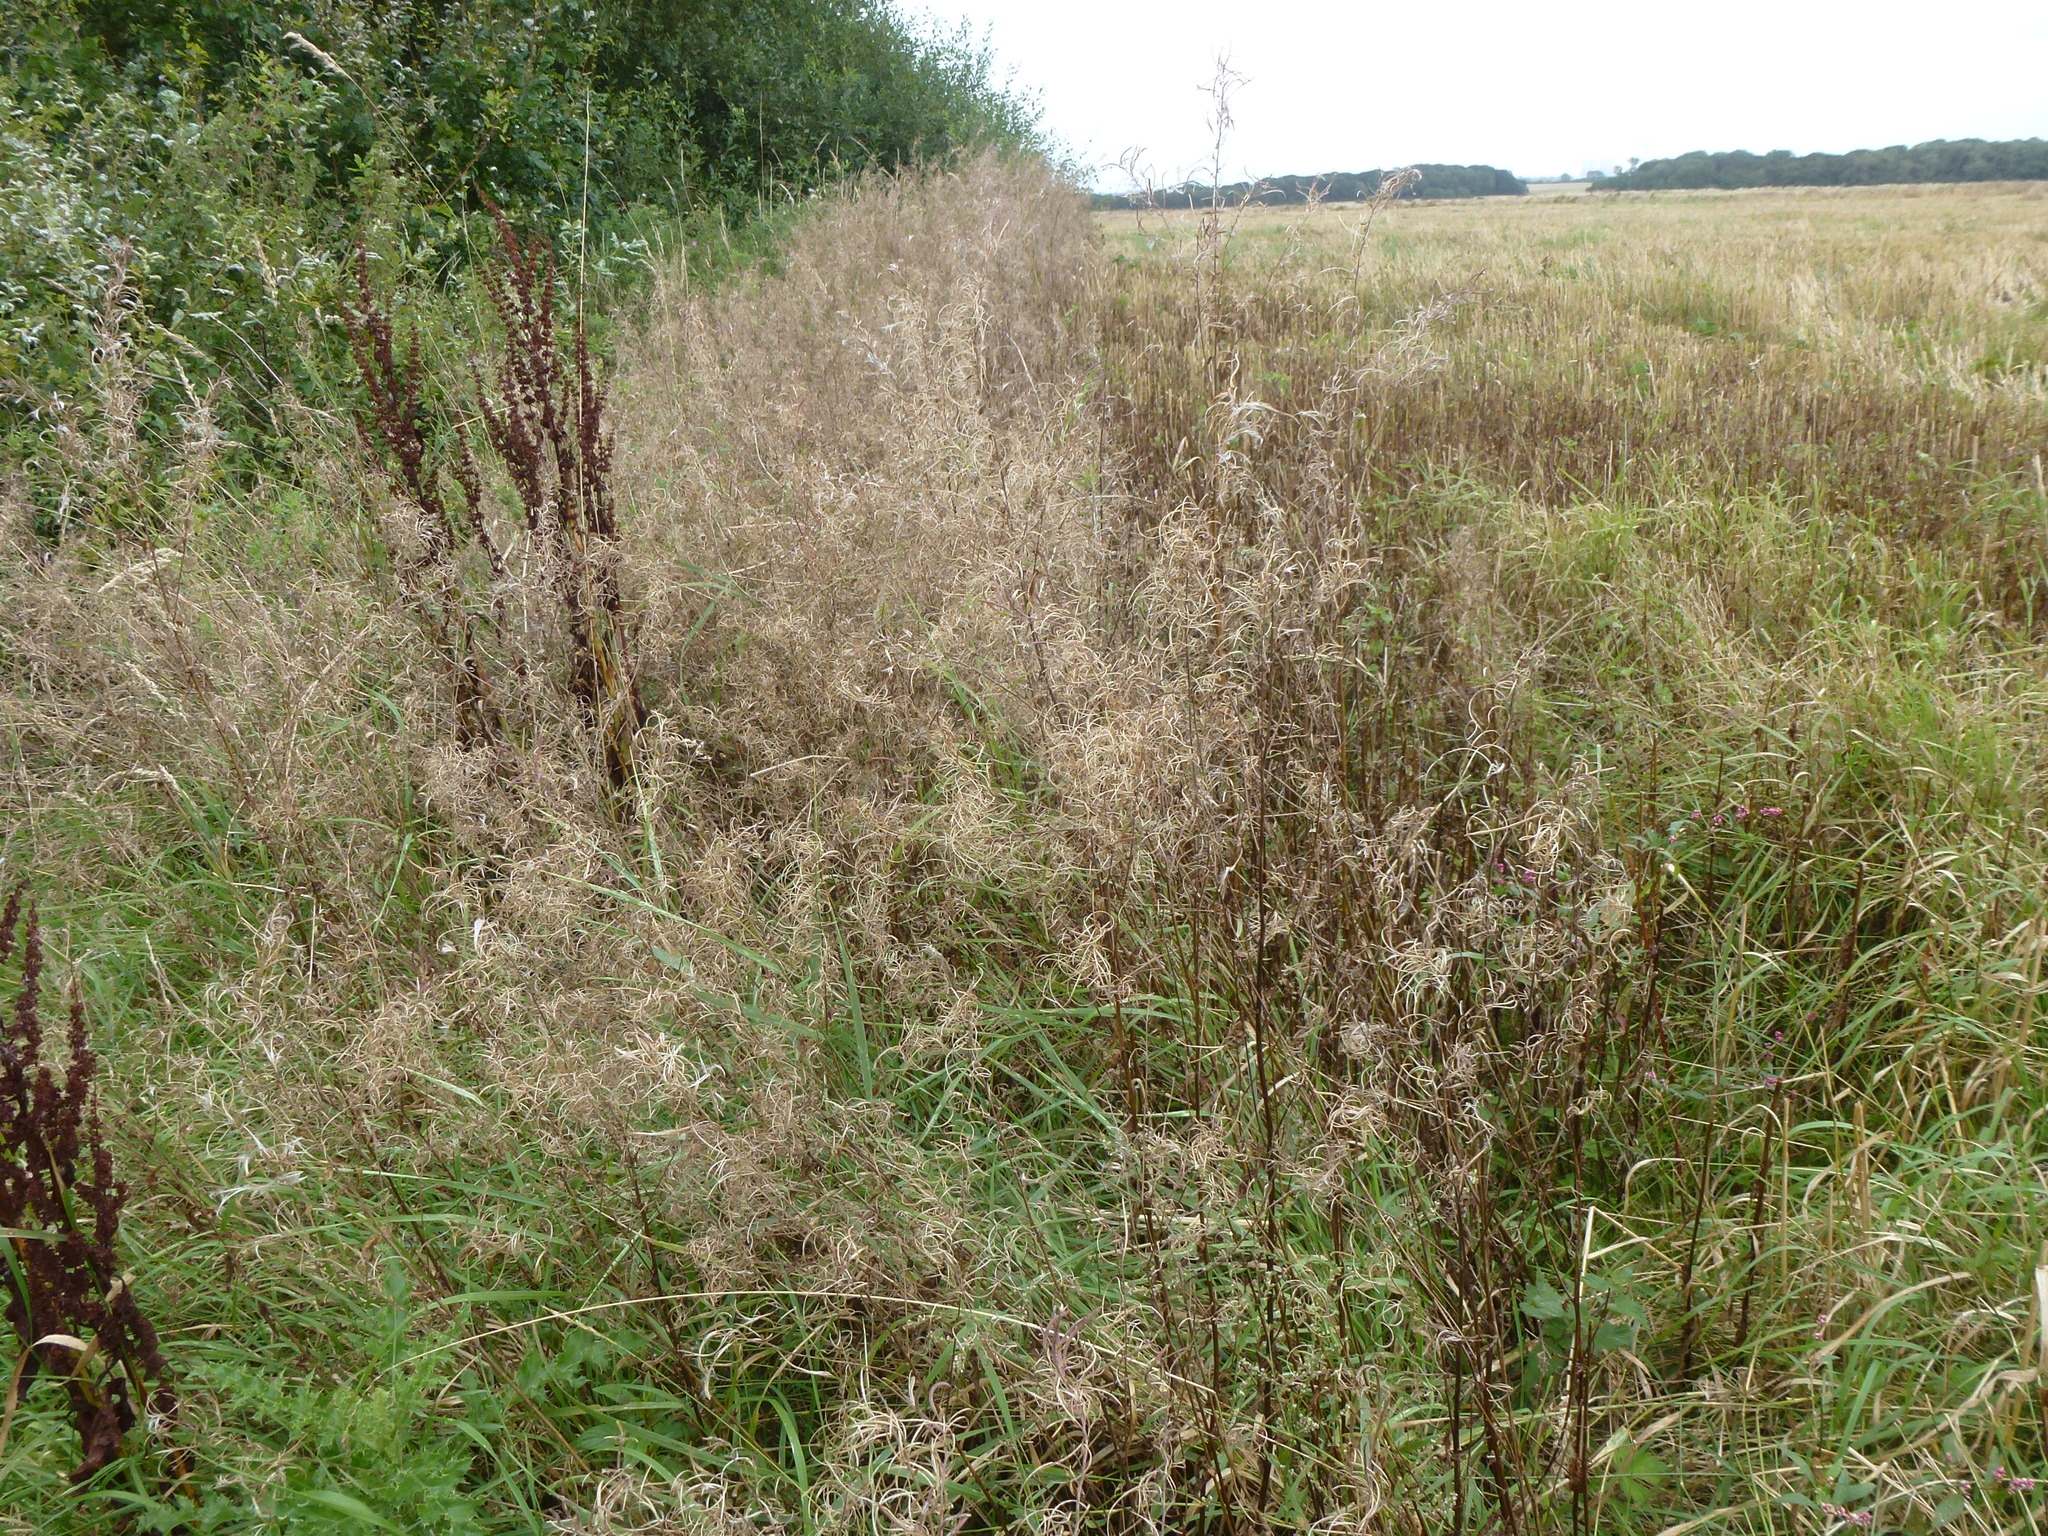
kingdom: Plantae
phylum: Tracheophyta
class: Magnoliopsida
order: Myrtales
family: Onagraceae
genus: Chamaenerion
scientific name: Chamaenerion angustifolium
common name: Fireweed
